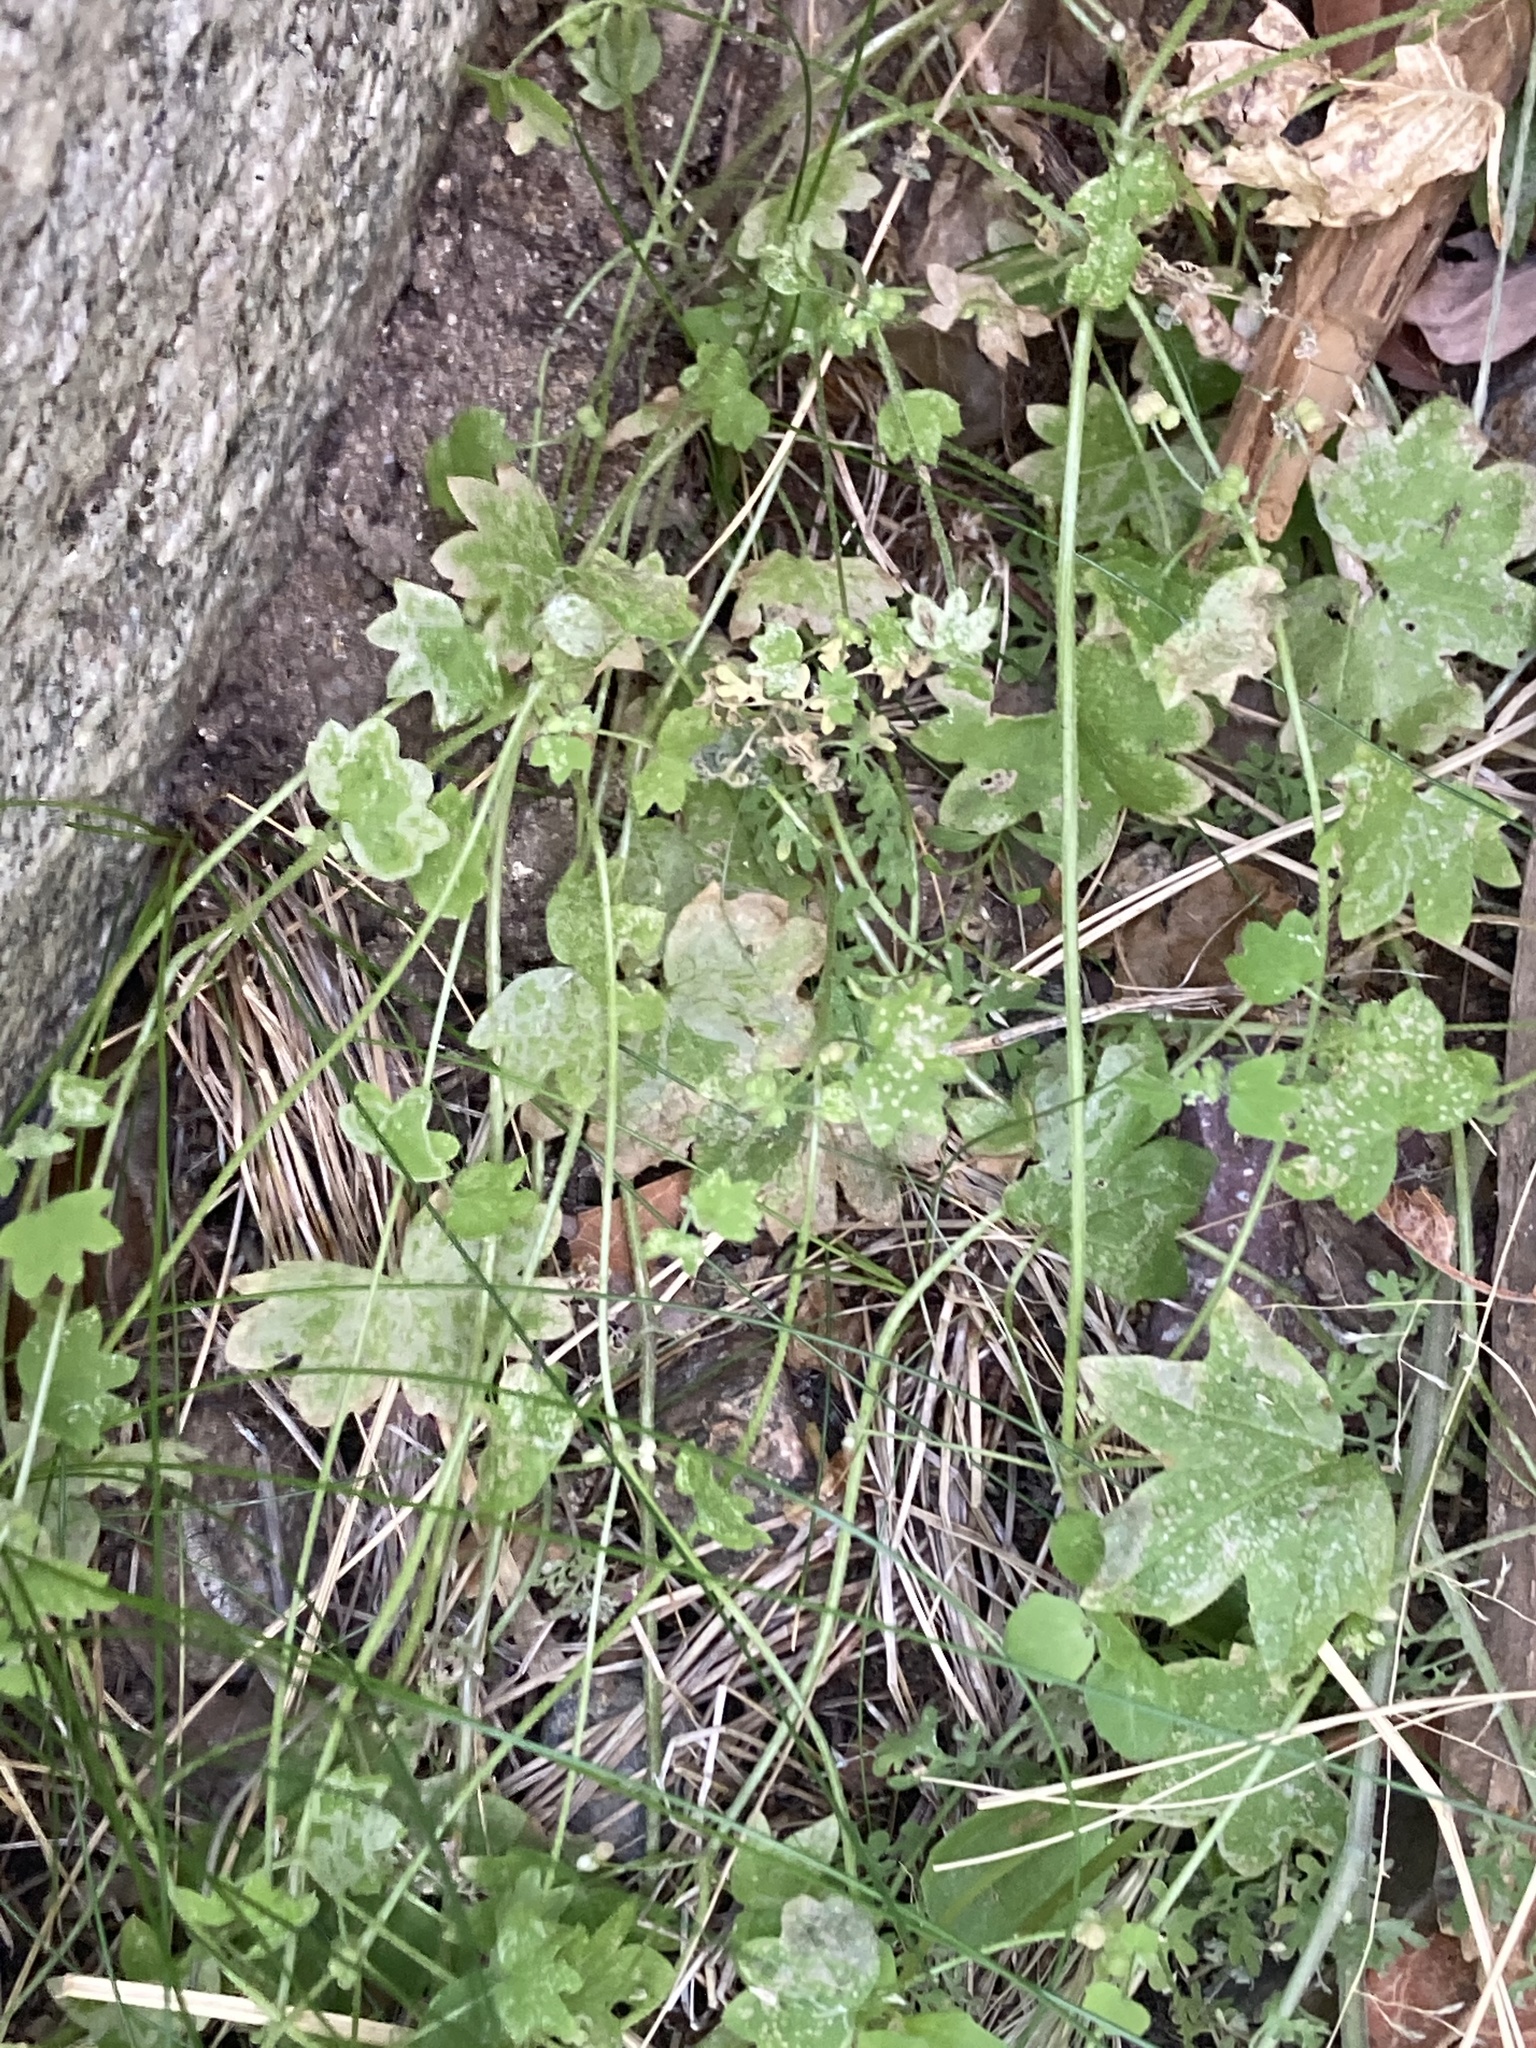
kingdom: Plantae
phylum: Tracheophyta
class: Magnoliopsida
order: Apiales
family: Apiaceae
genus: Bowlesia
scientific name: Bowlesia incana
